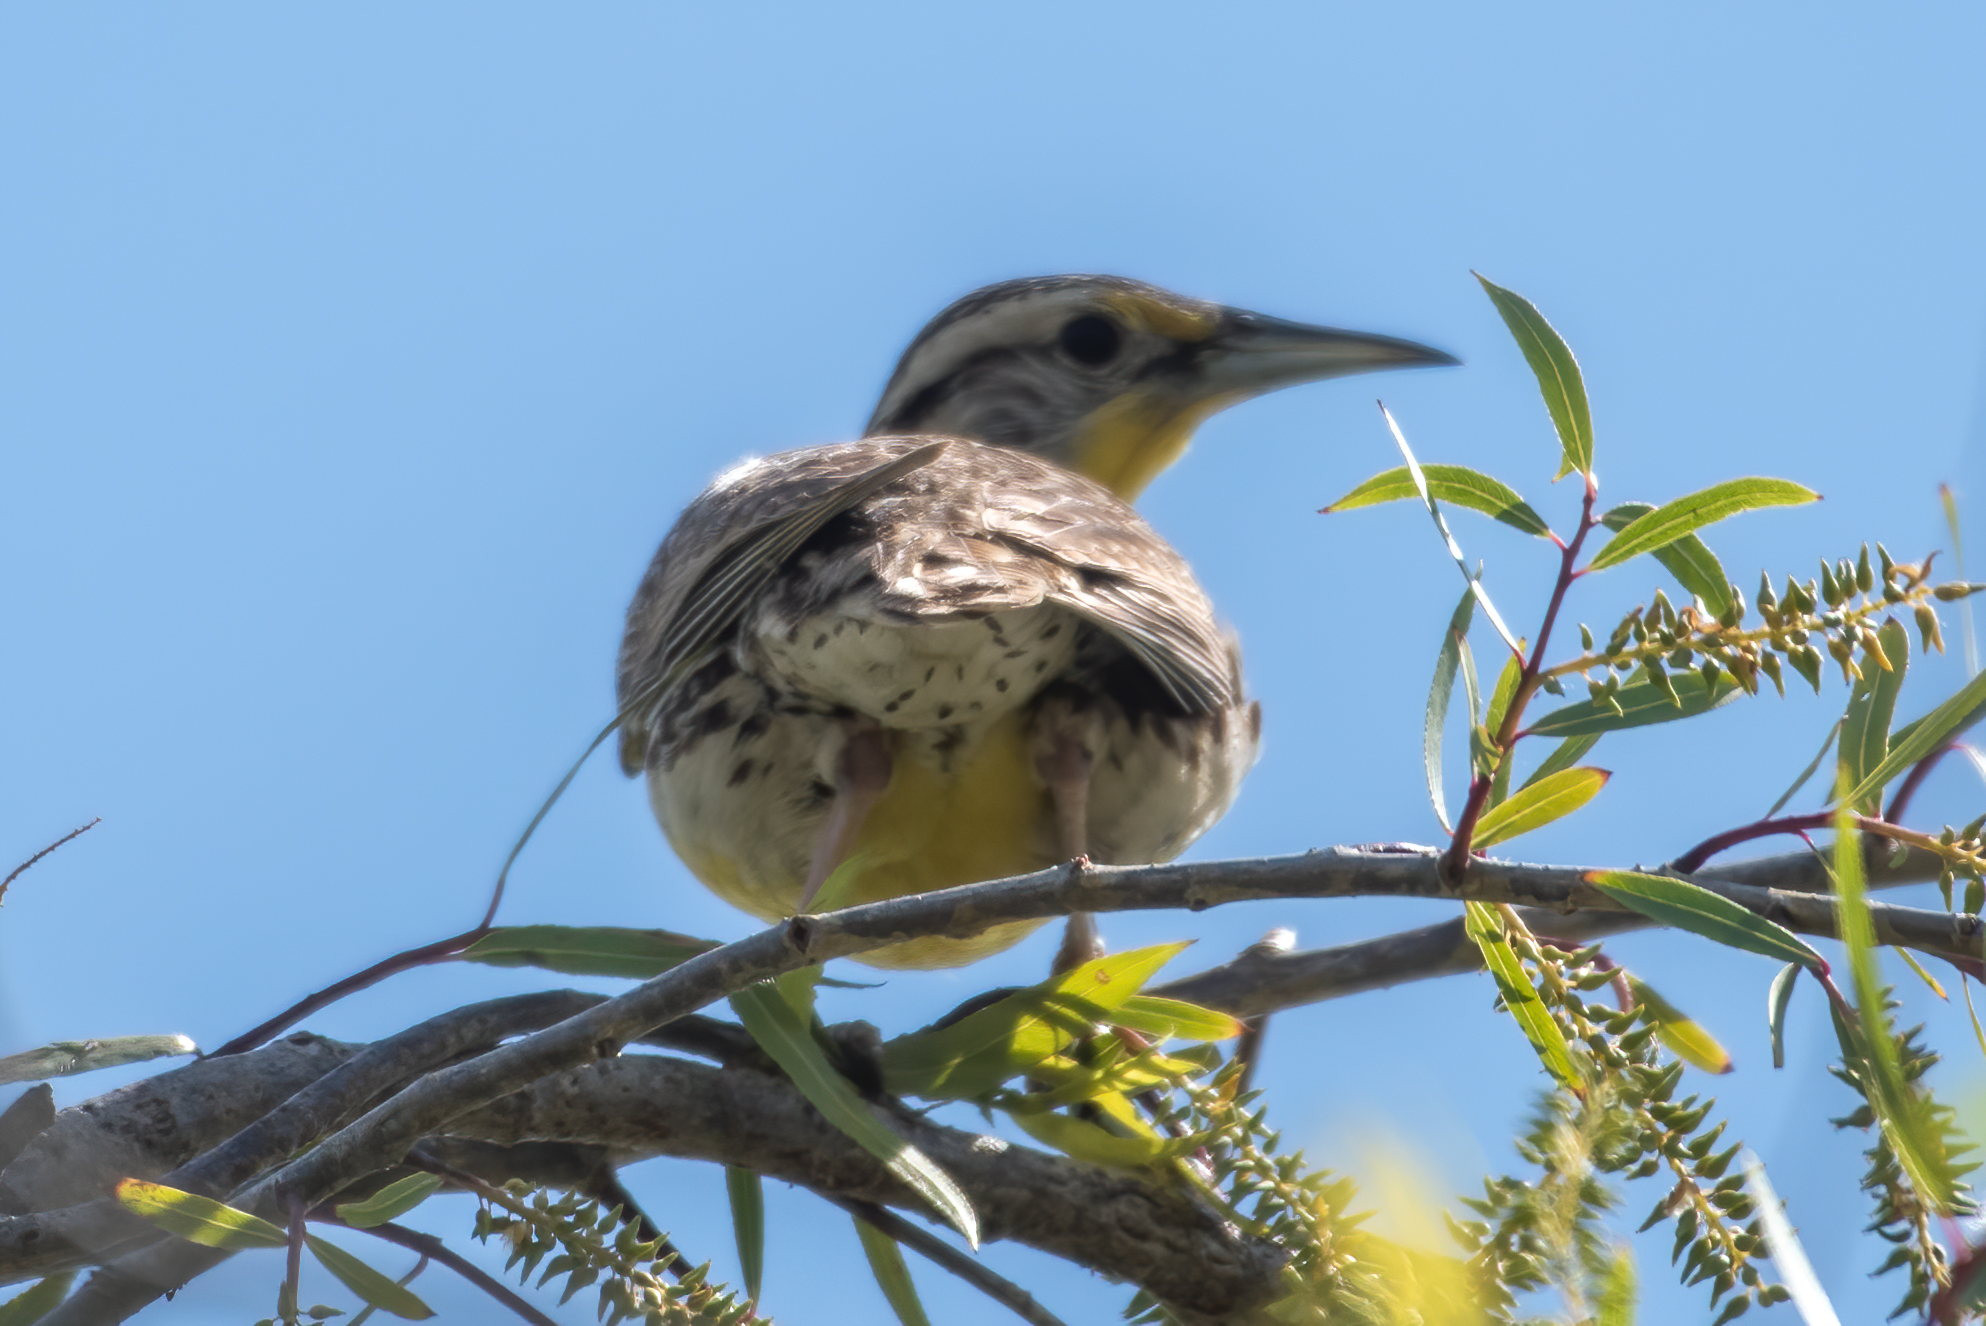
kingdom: Animalia
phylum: Chordata
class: Aves
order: Passeriformes
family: Icteridae
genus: Sturnella
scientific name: Sturnella neglecta
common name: Western meadowlark
